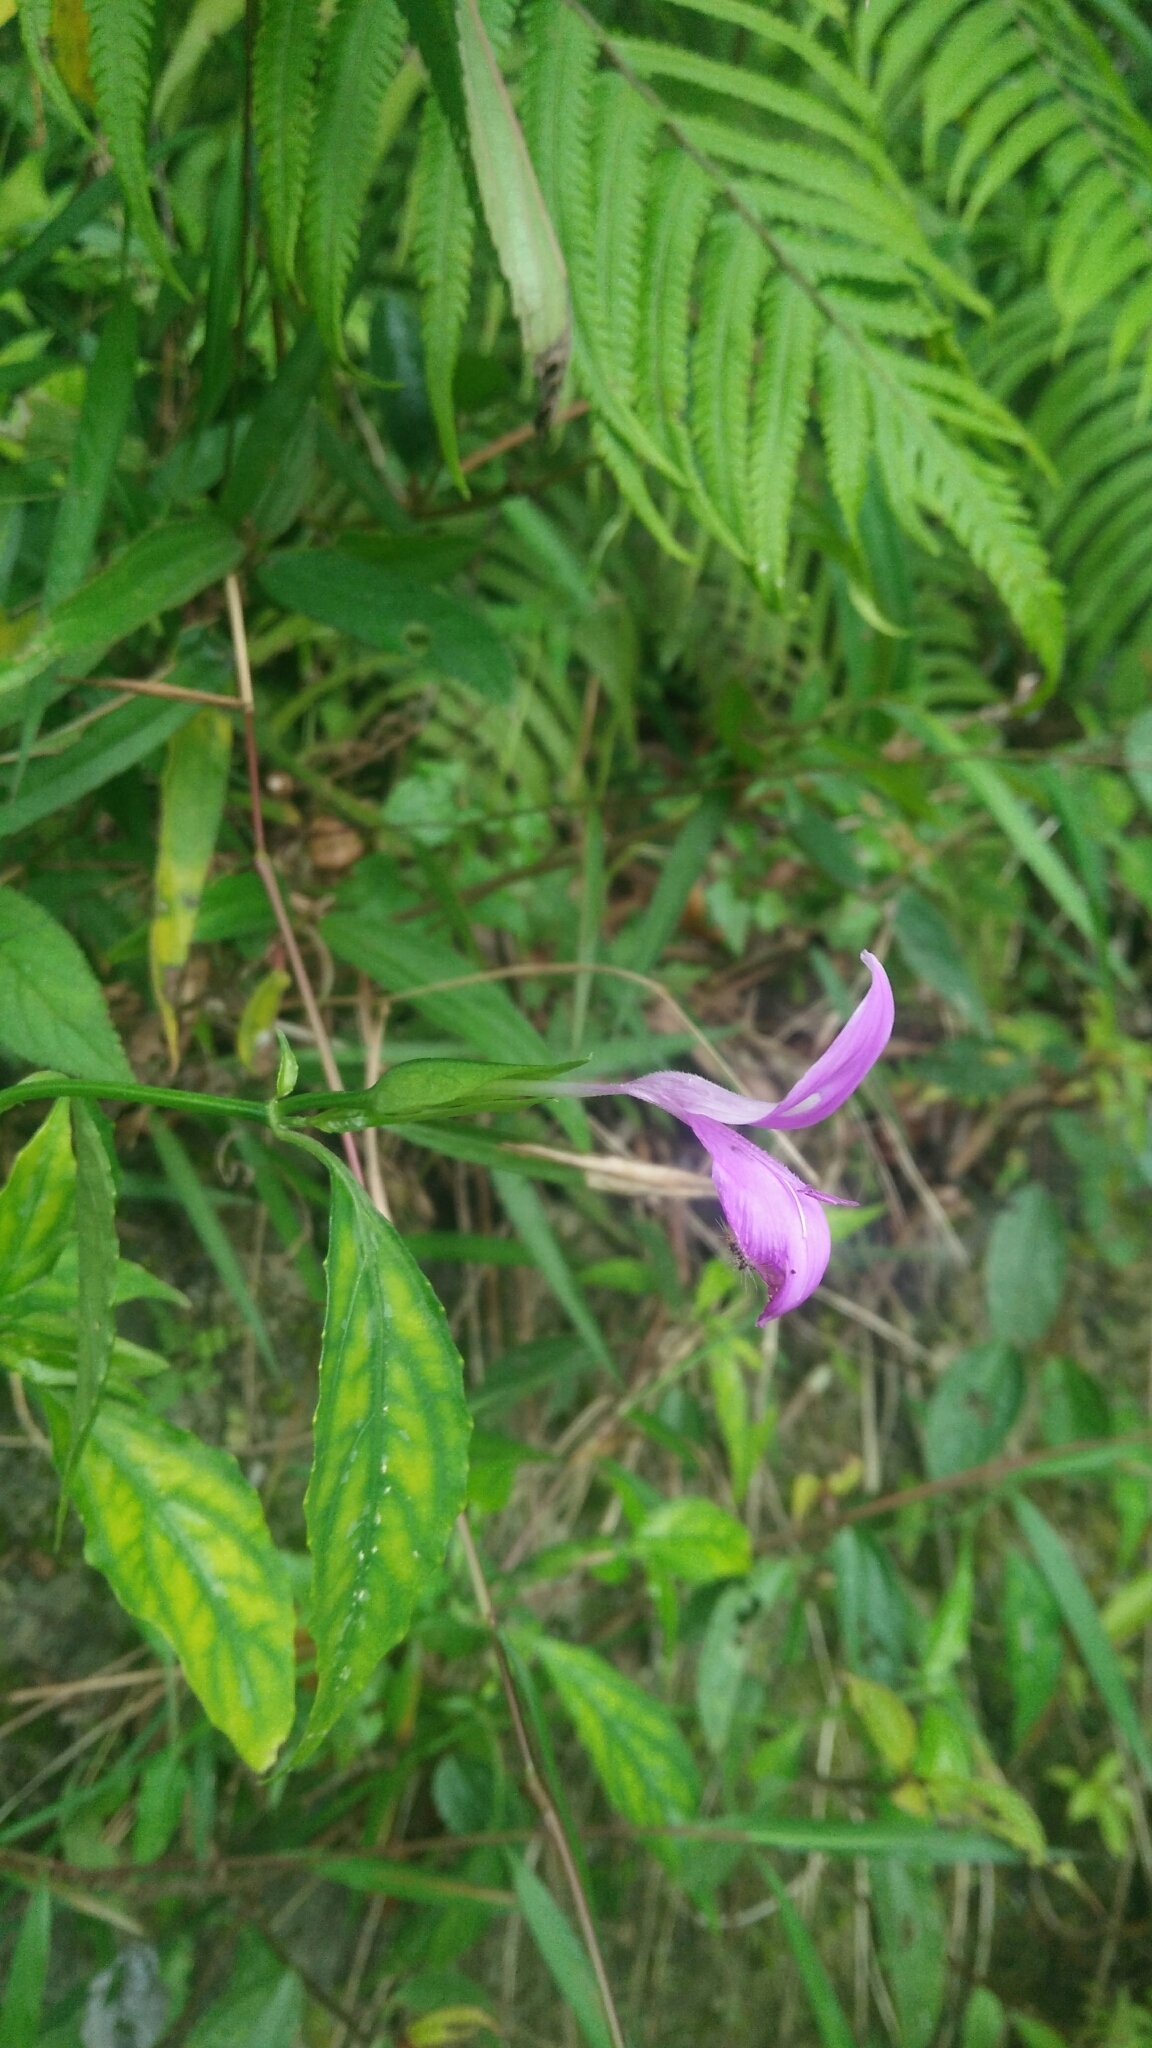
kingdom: Plantae
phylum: Tracheophyta
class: Magnoliopsida
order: Lamiales
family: Acanthaceae
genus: Dicliptera
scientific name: Dicliptera tinctoria
